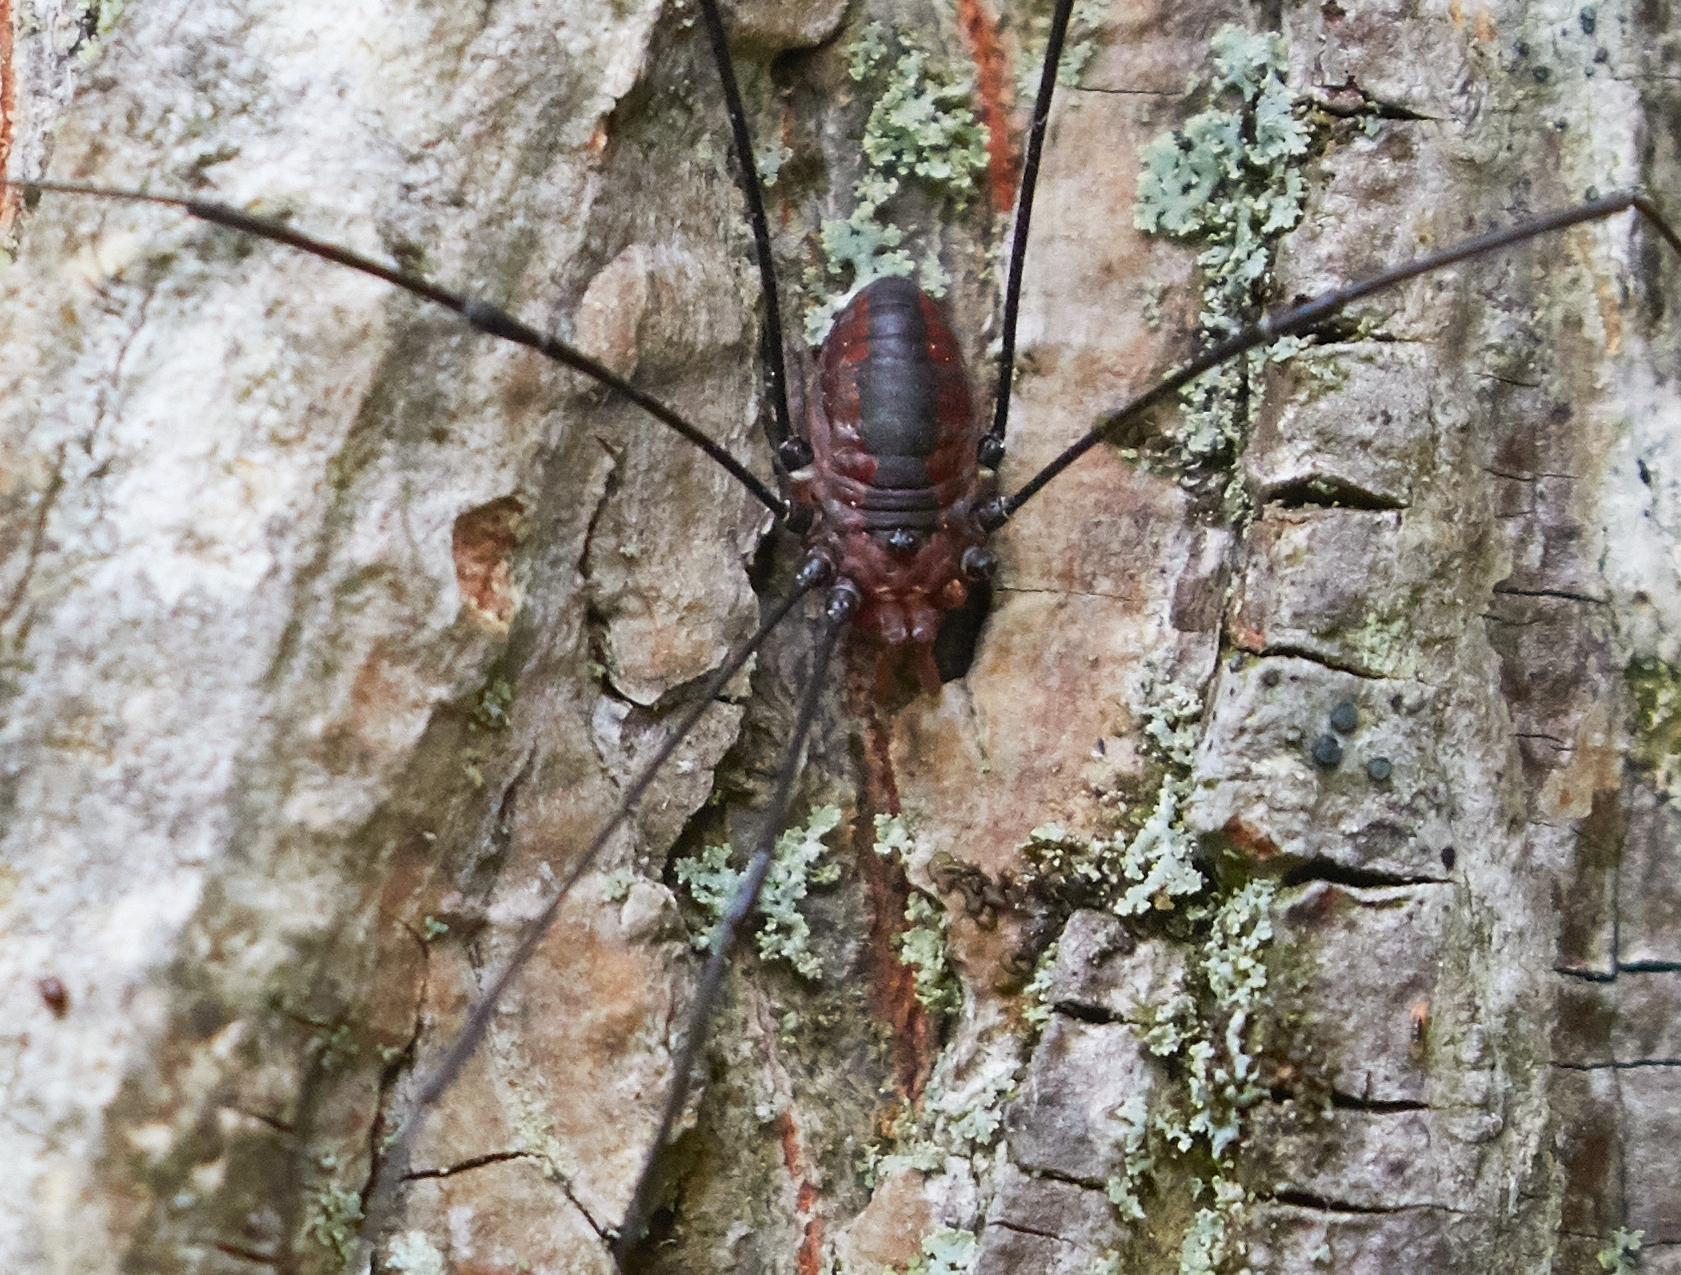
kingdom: Animalia
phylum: Arthropoda
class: Arachnida
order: Opiliones
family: Sclerosomatidae
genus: Leiobunum
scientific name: Leiobunum vittatum
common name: Eastern harvestman
